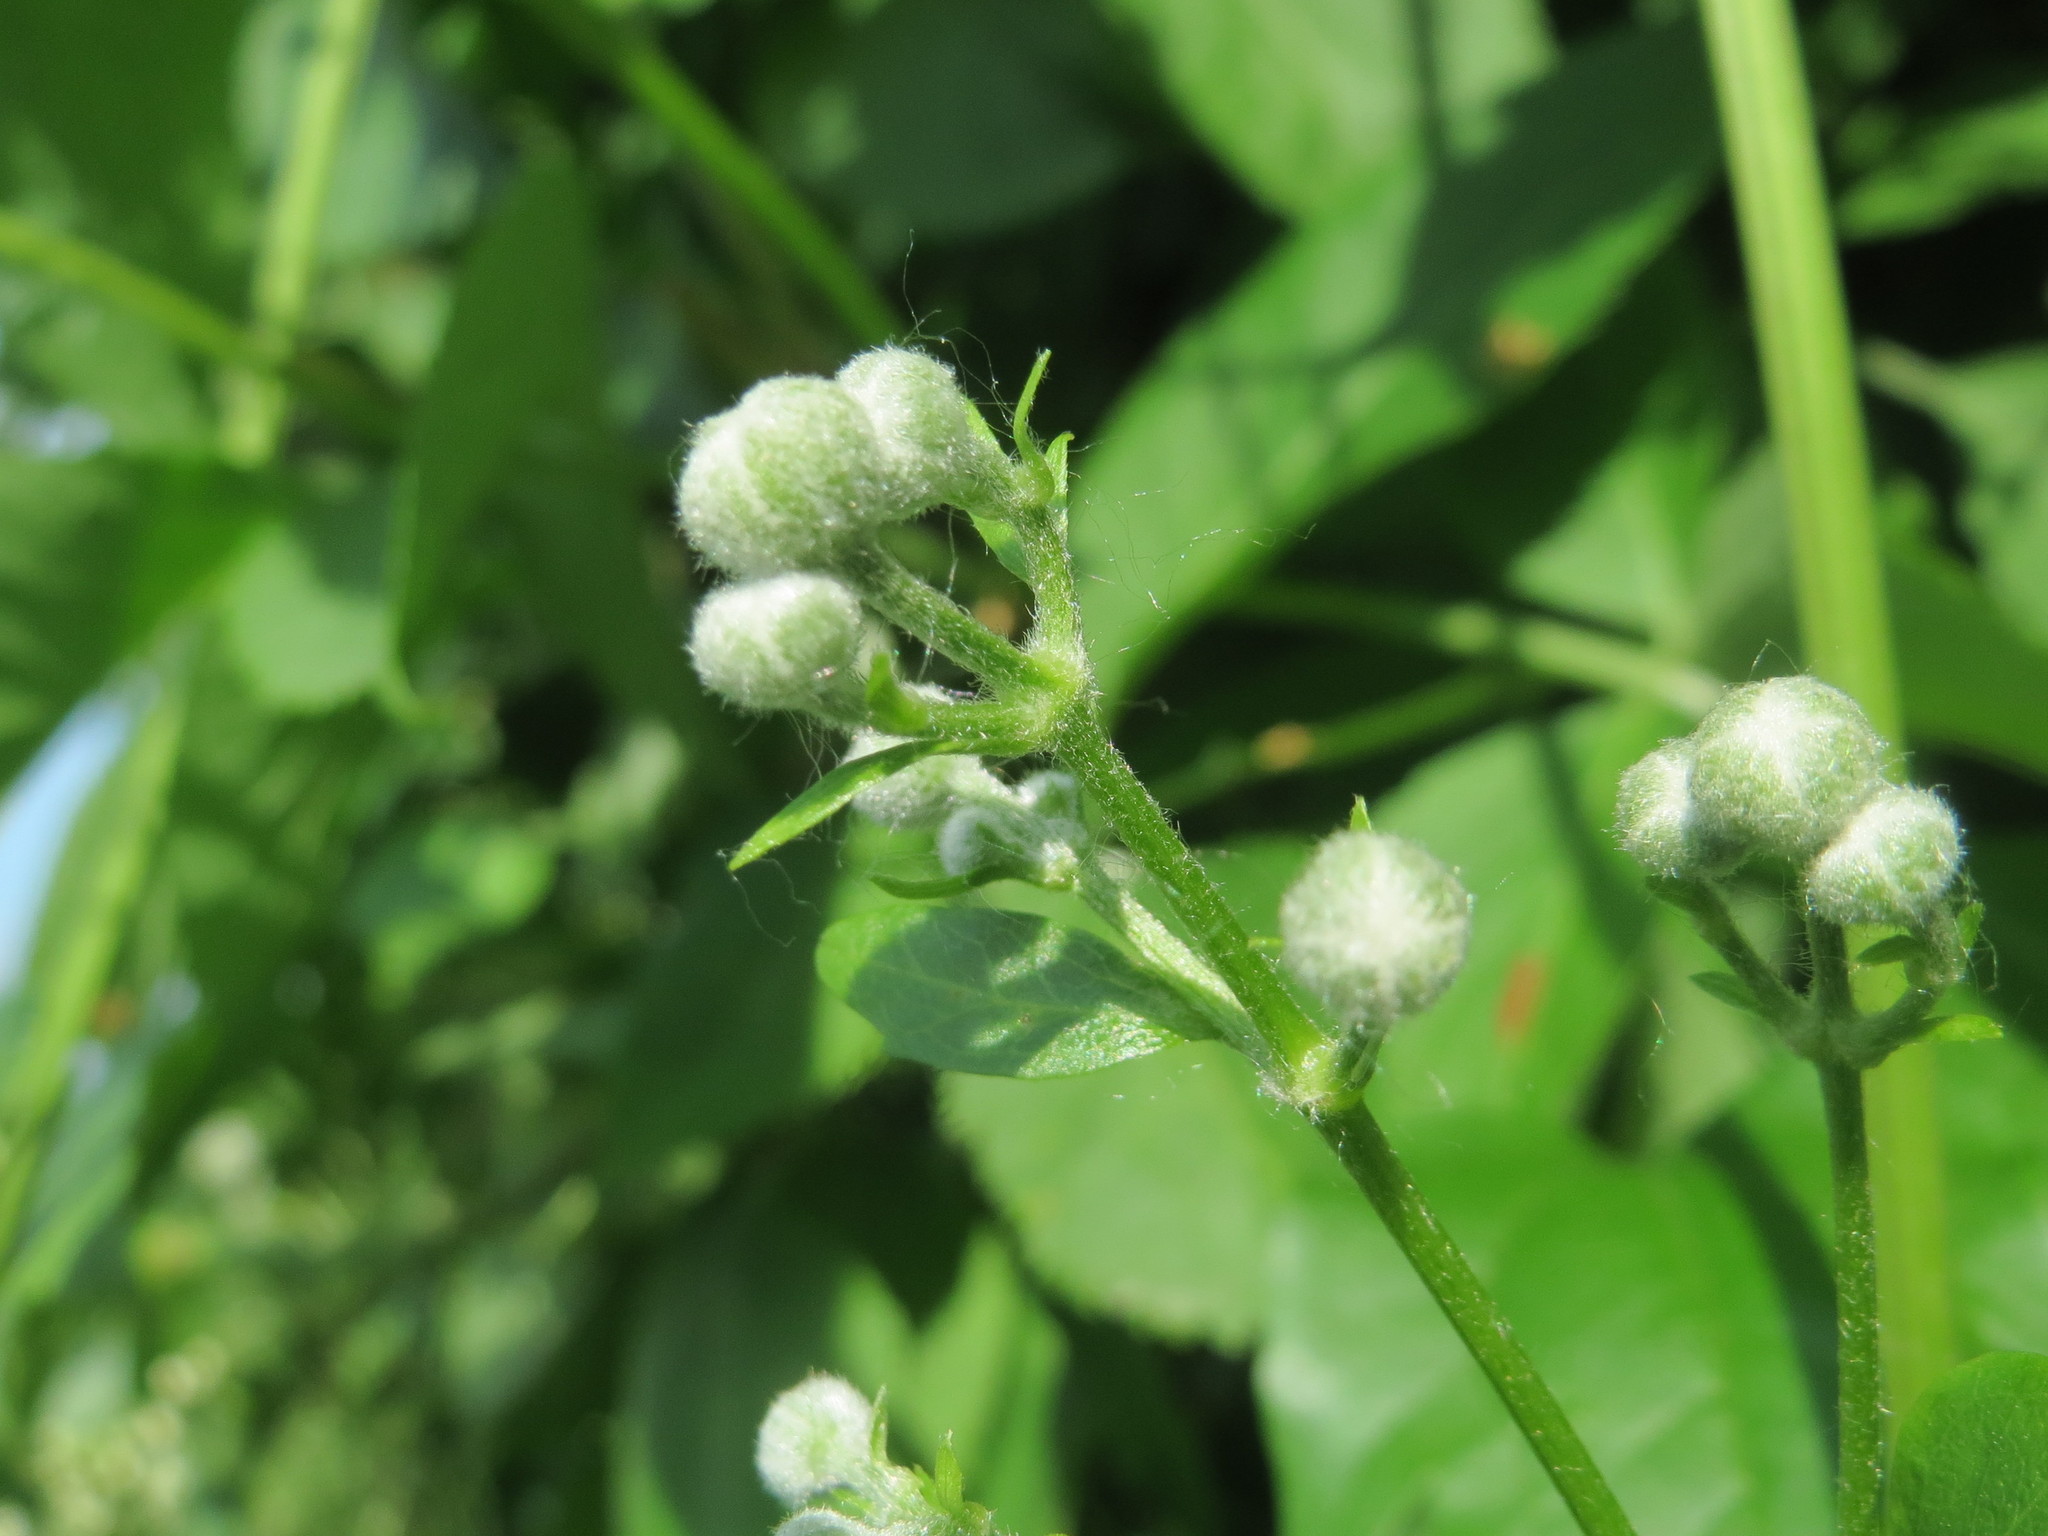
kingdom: Plantae
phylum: Tracheophyta
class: Magnoliopsida
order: Ranunculales
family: Ranunculaceae
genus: Clematis
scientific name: Clematis vitalba
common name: Evergreen clematis
